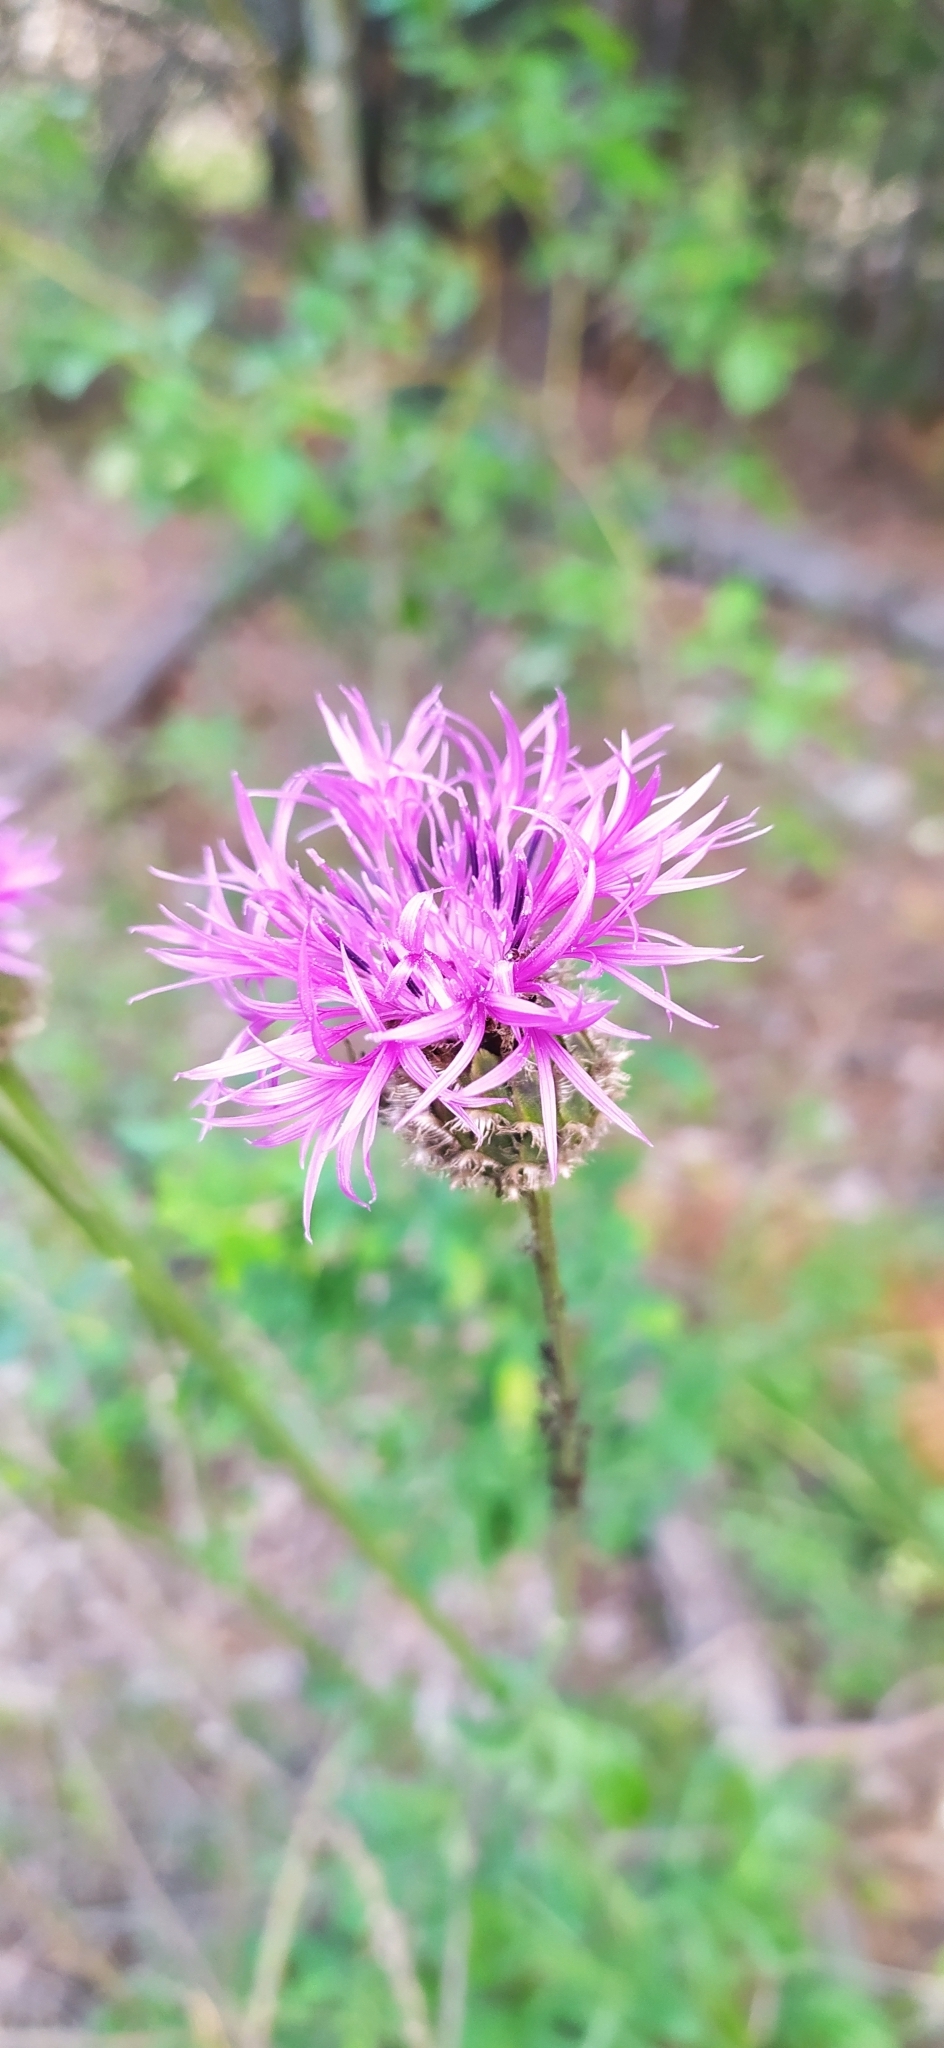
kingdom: Plantae
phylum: Tracheophyta
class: Magnoliopsida
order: Asterales
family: Asteraceae
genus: Centaurea
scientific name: Centaurea scabiosa
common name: Greater knapweed
